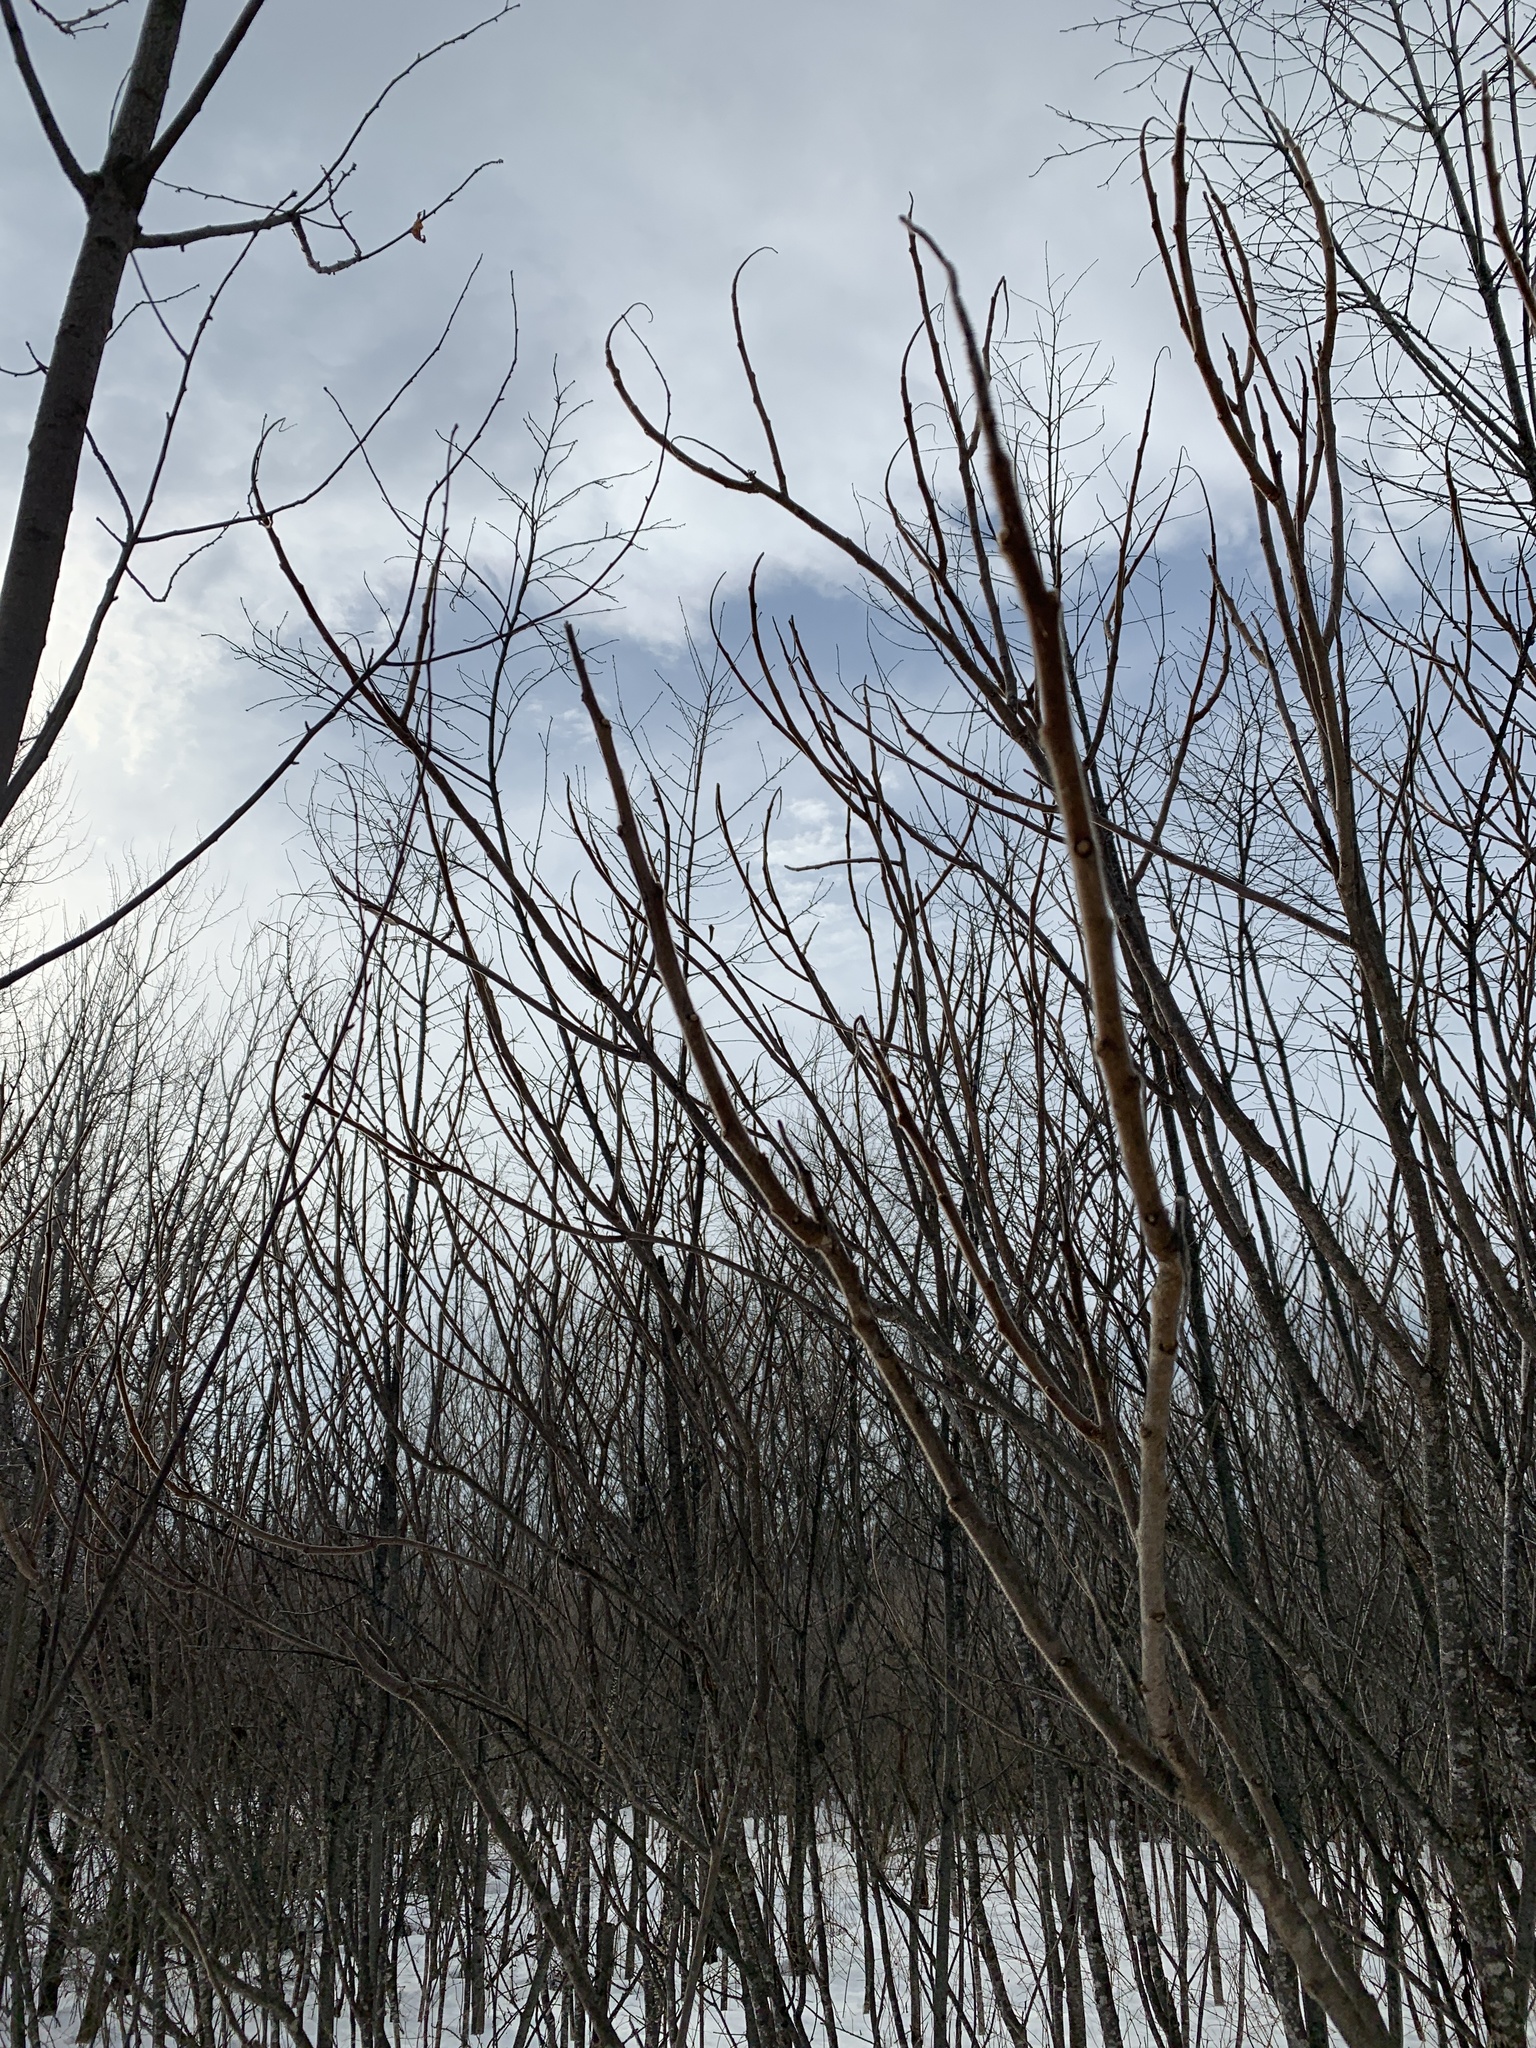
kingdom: Plantae
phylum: Tracheophyta
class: Magnoliopsida
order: Sapindales
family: Anacardiaceae
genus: Rhus
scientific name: Rhus typhina
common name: Staghorn sumac
